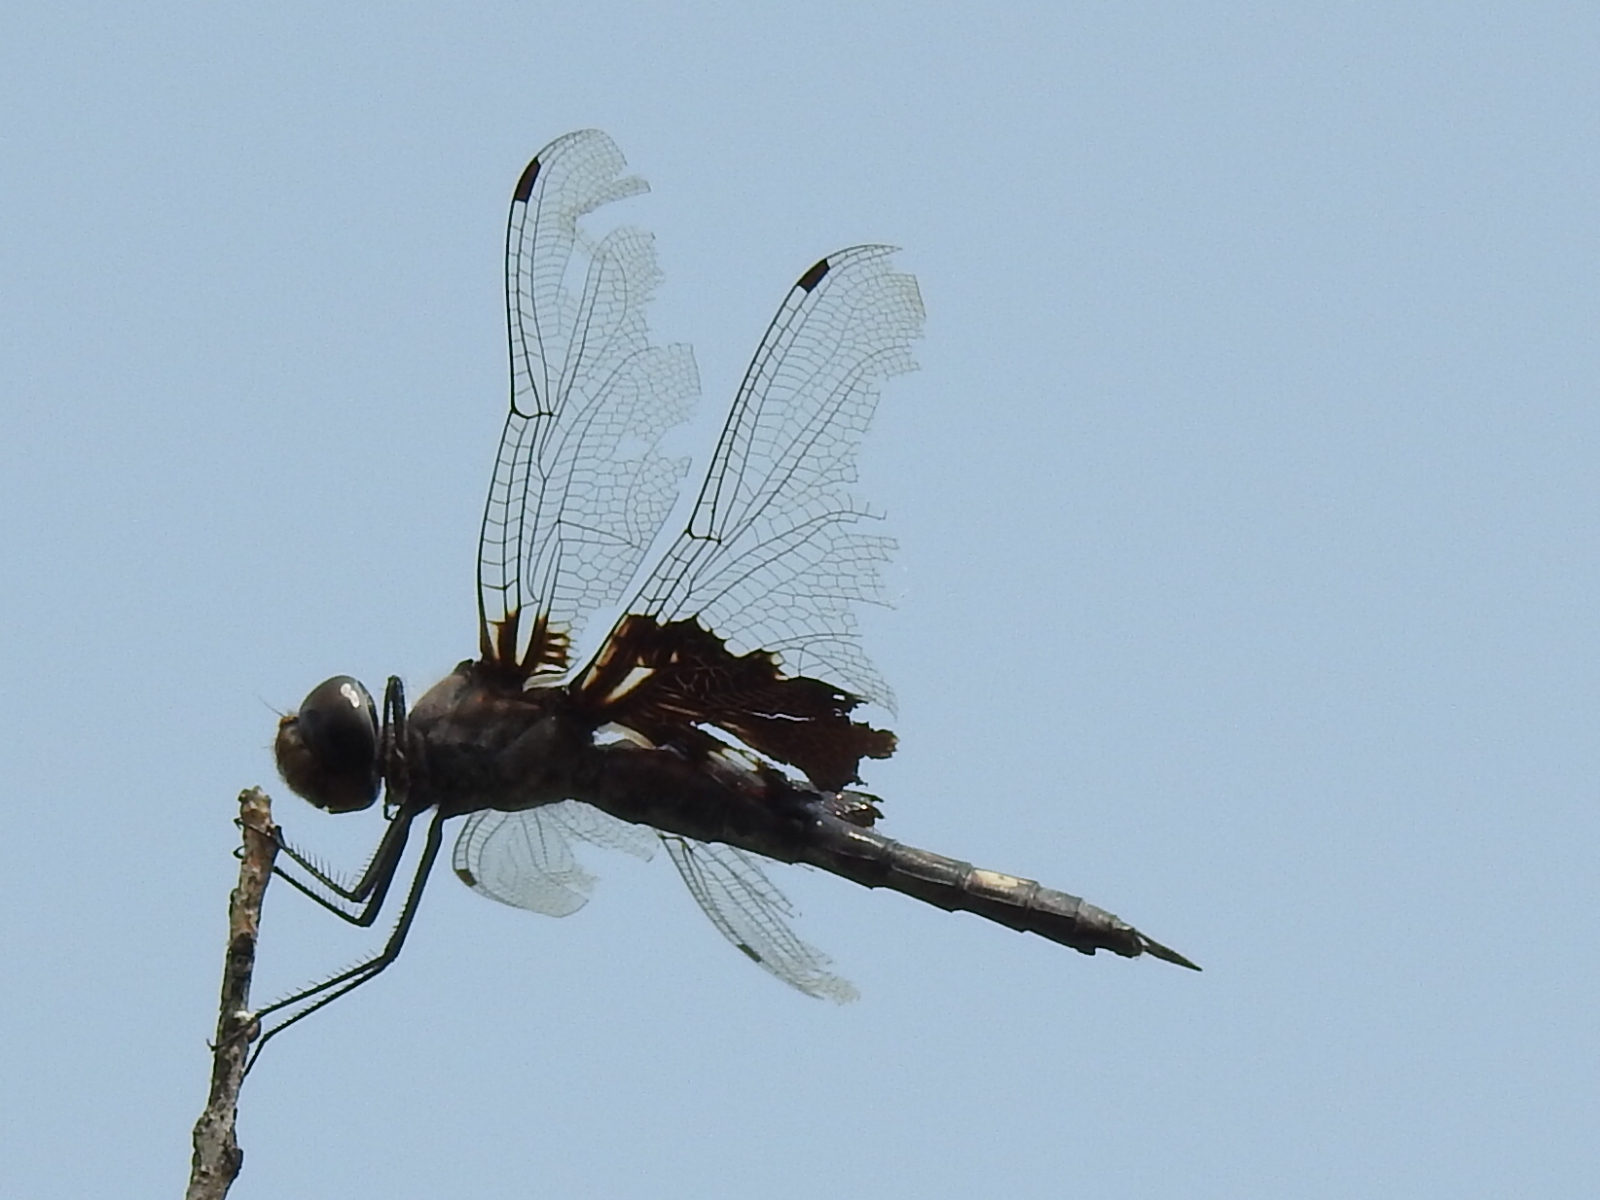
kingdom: Animalia
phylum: Arthropoda
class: Insecta
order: Odonata
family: Libellulidae
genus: Tramea
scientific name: Tramea lacerata
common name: Black saddlebags
